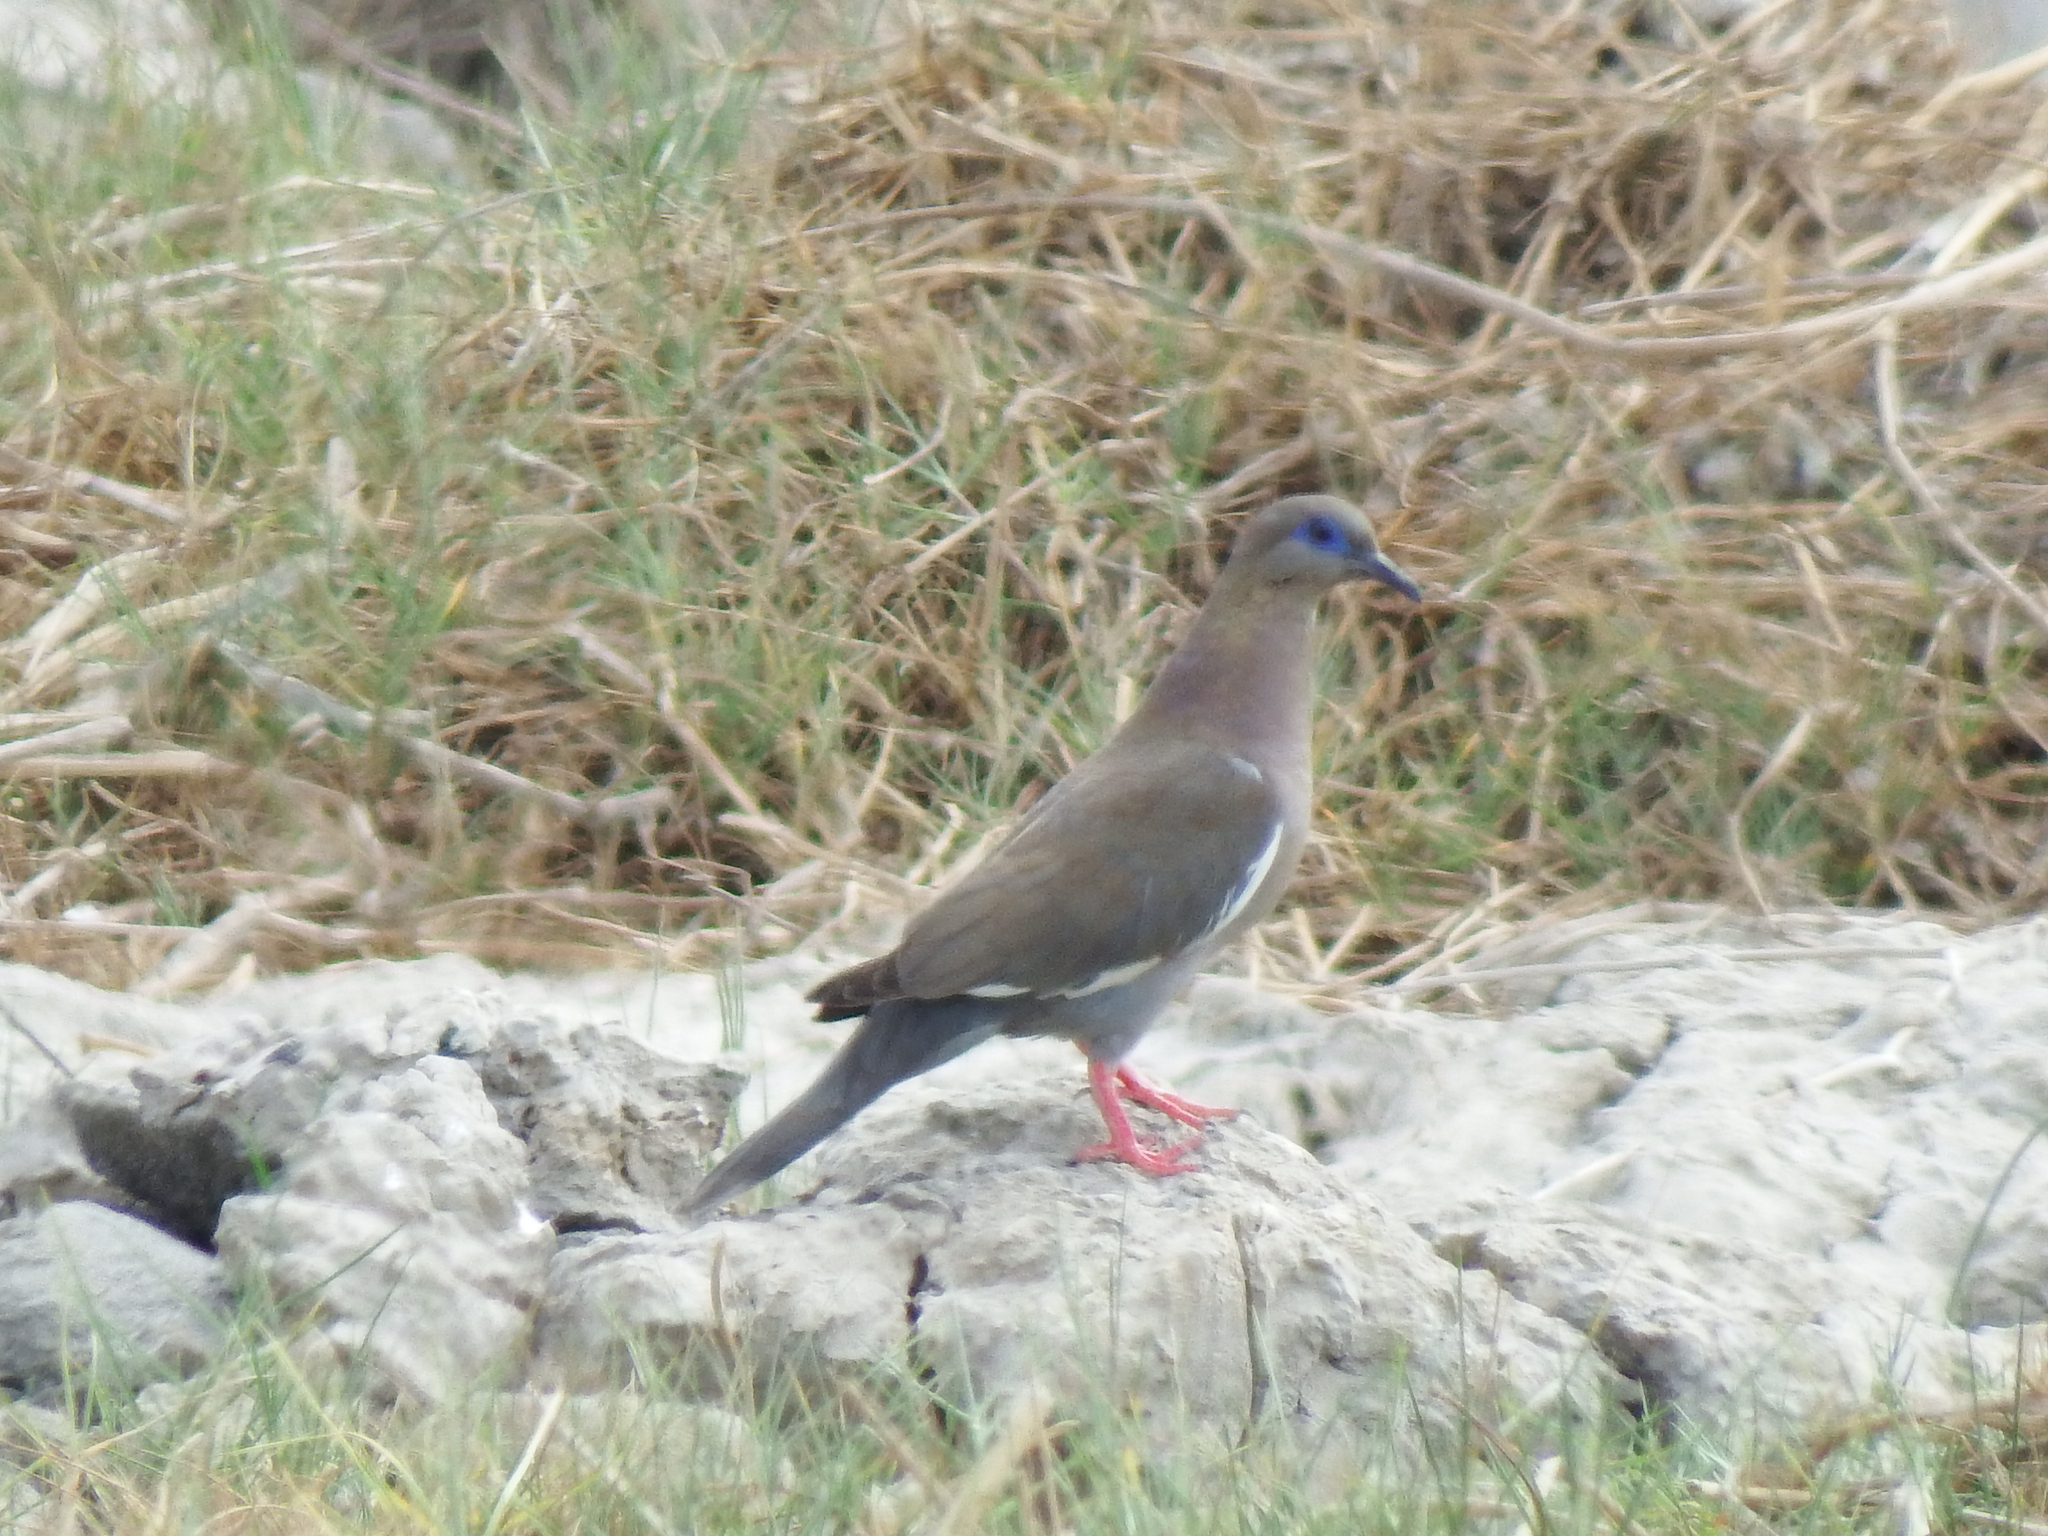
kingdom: Animalia
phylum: Chordata
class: Aves
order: Columbiformes
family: Columbidae
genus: Zenaida
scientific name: Zenaida meloda
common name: West peruvian dove
